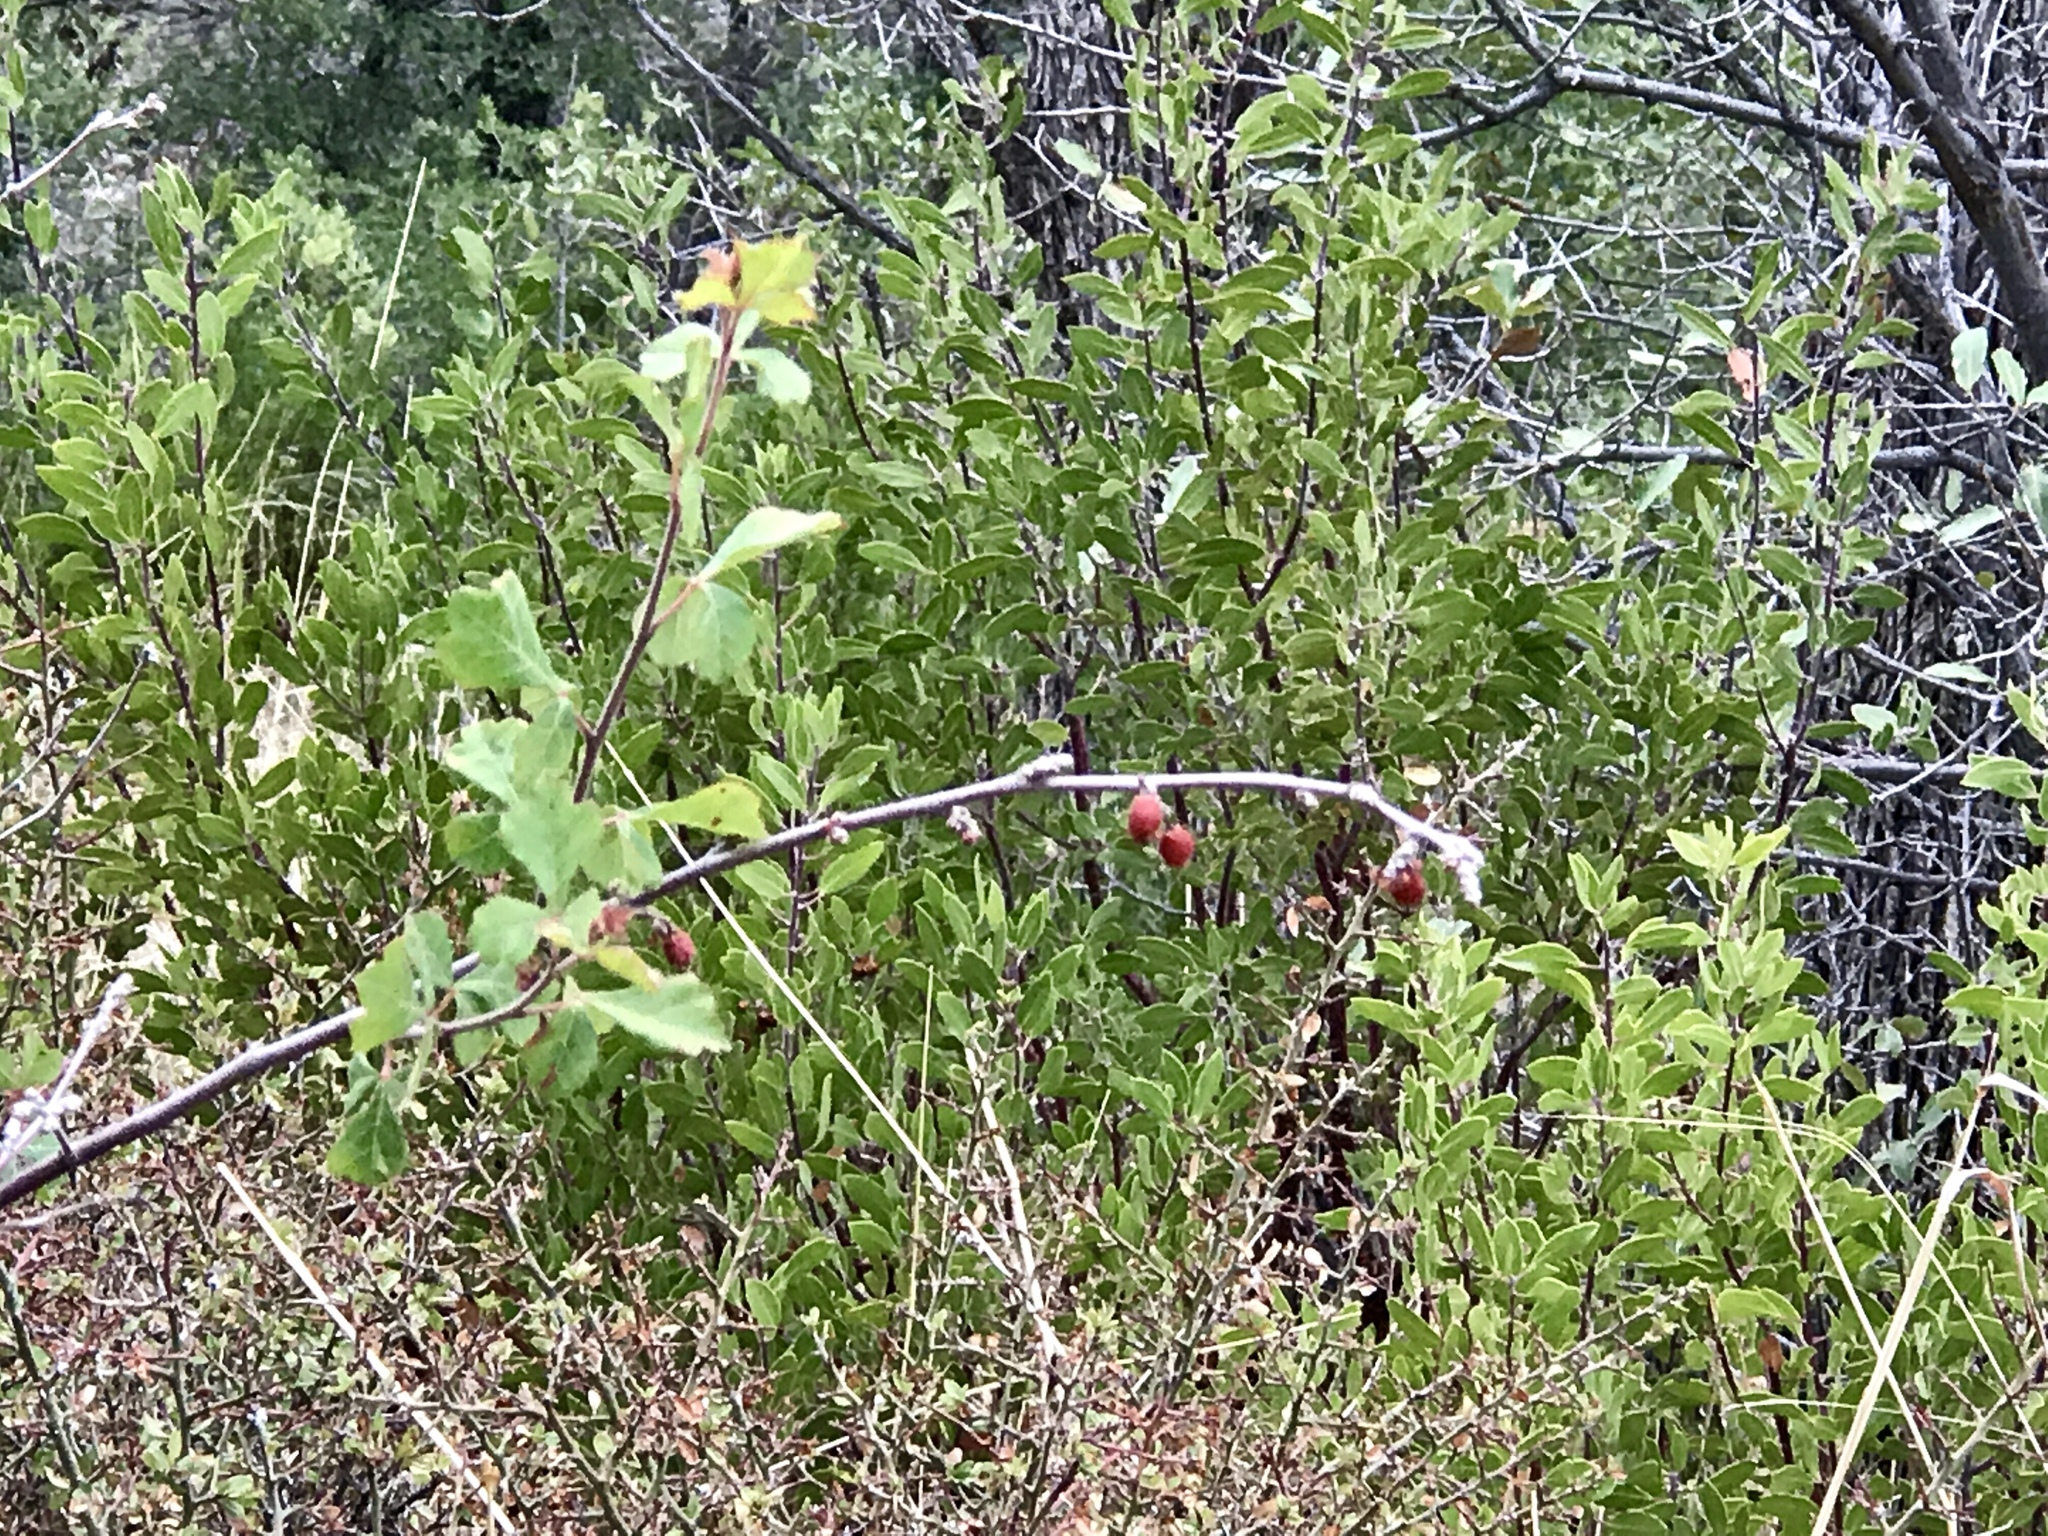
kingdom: Plantae
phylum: Tracheophyta
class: Magnoliopsida
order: Sapindales
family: Anacardiaceae
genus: Rhus
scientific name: Rhus aromatica
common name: Aromatic sumac
